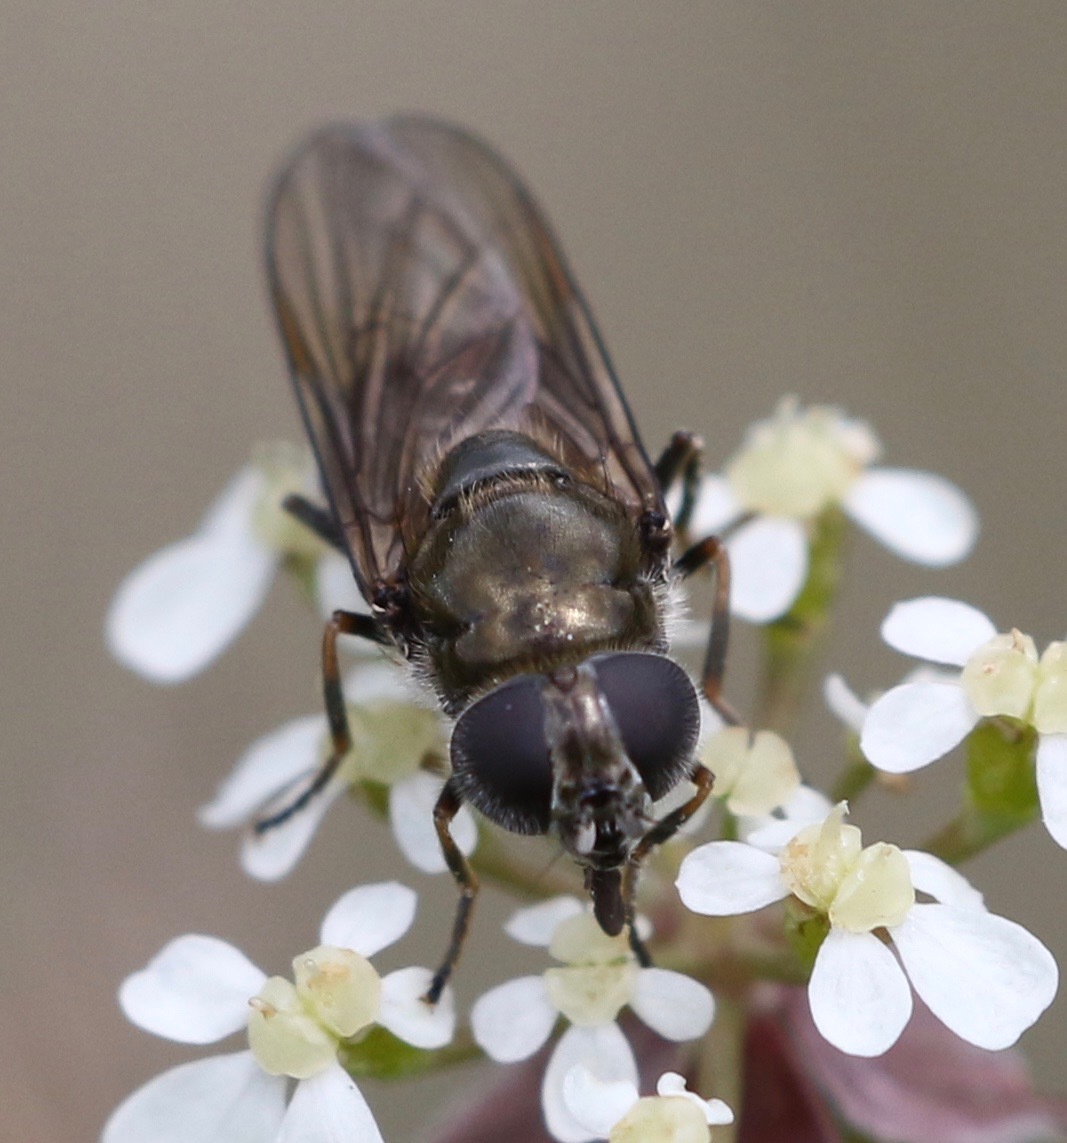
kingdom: Animalia
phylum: Arthropoda
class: Insecta
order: Diptera
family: Syrphidae
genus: Cheilosia
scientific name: Cheilosia
